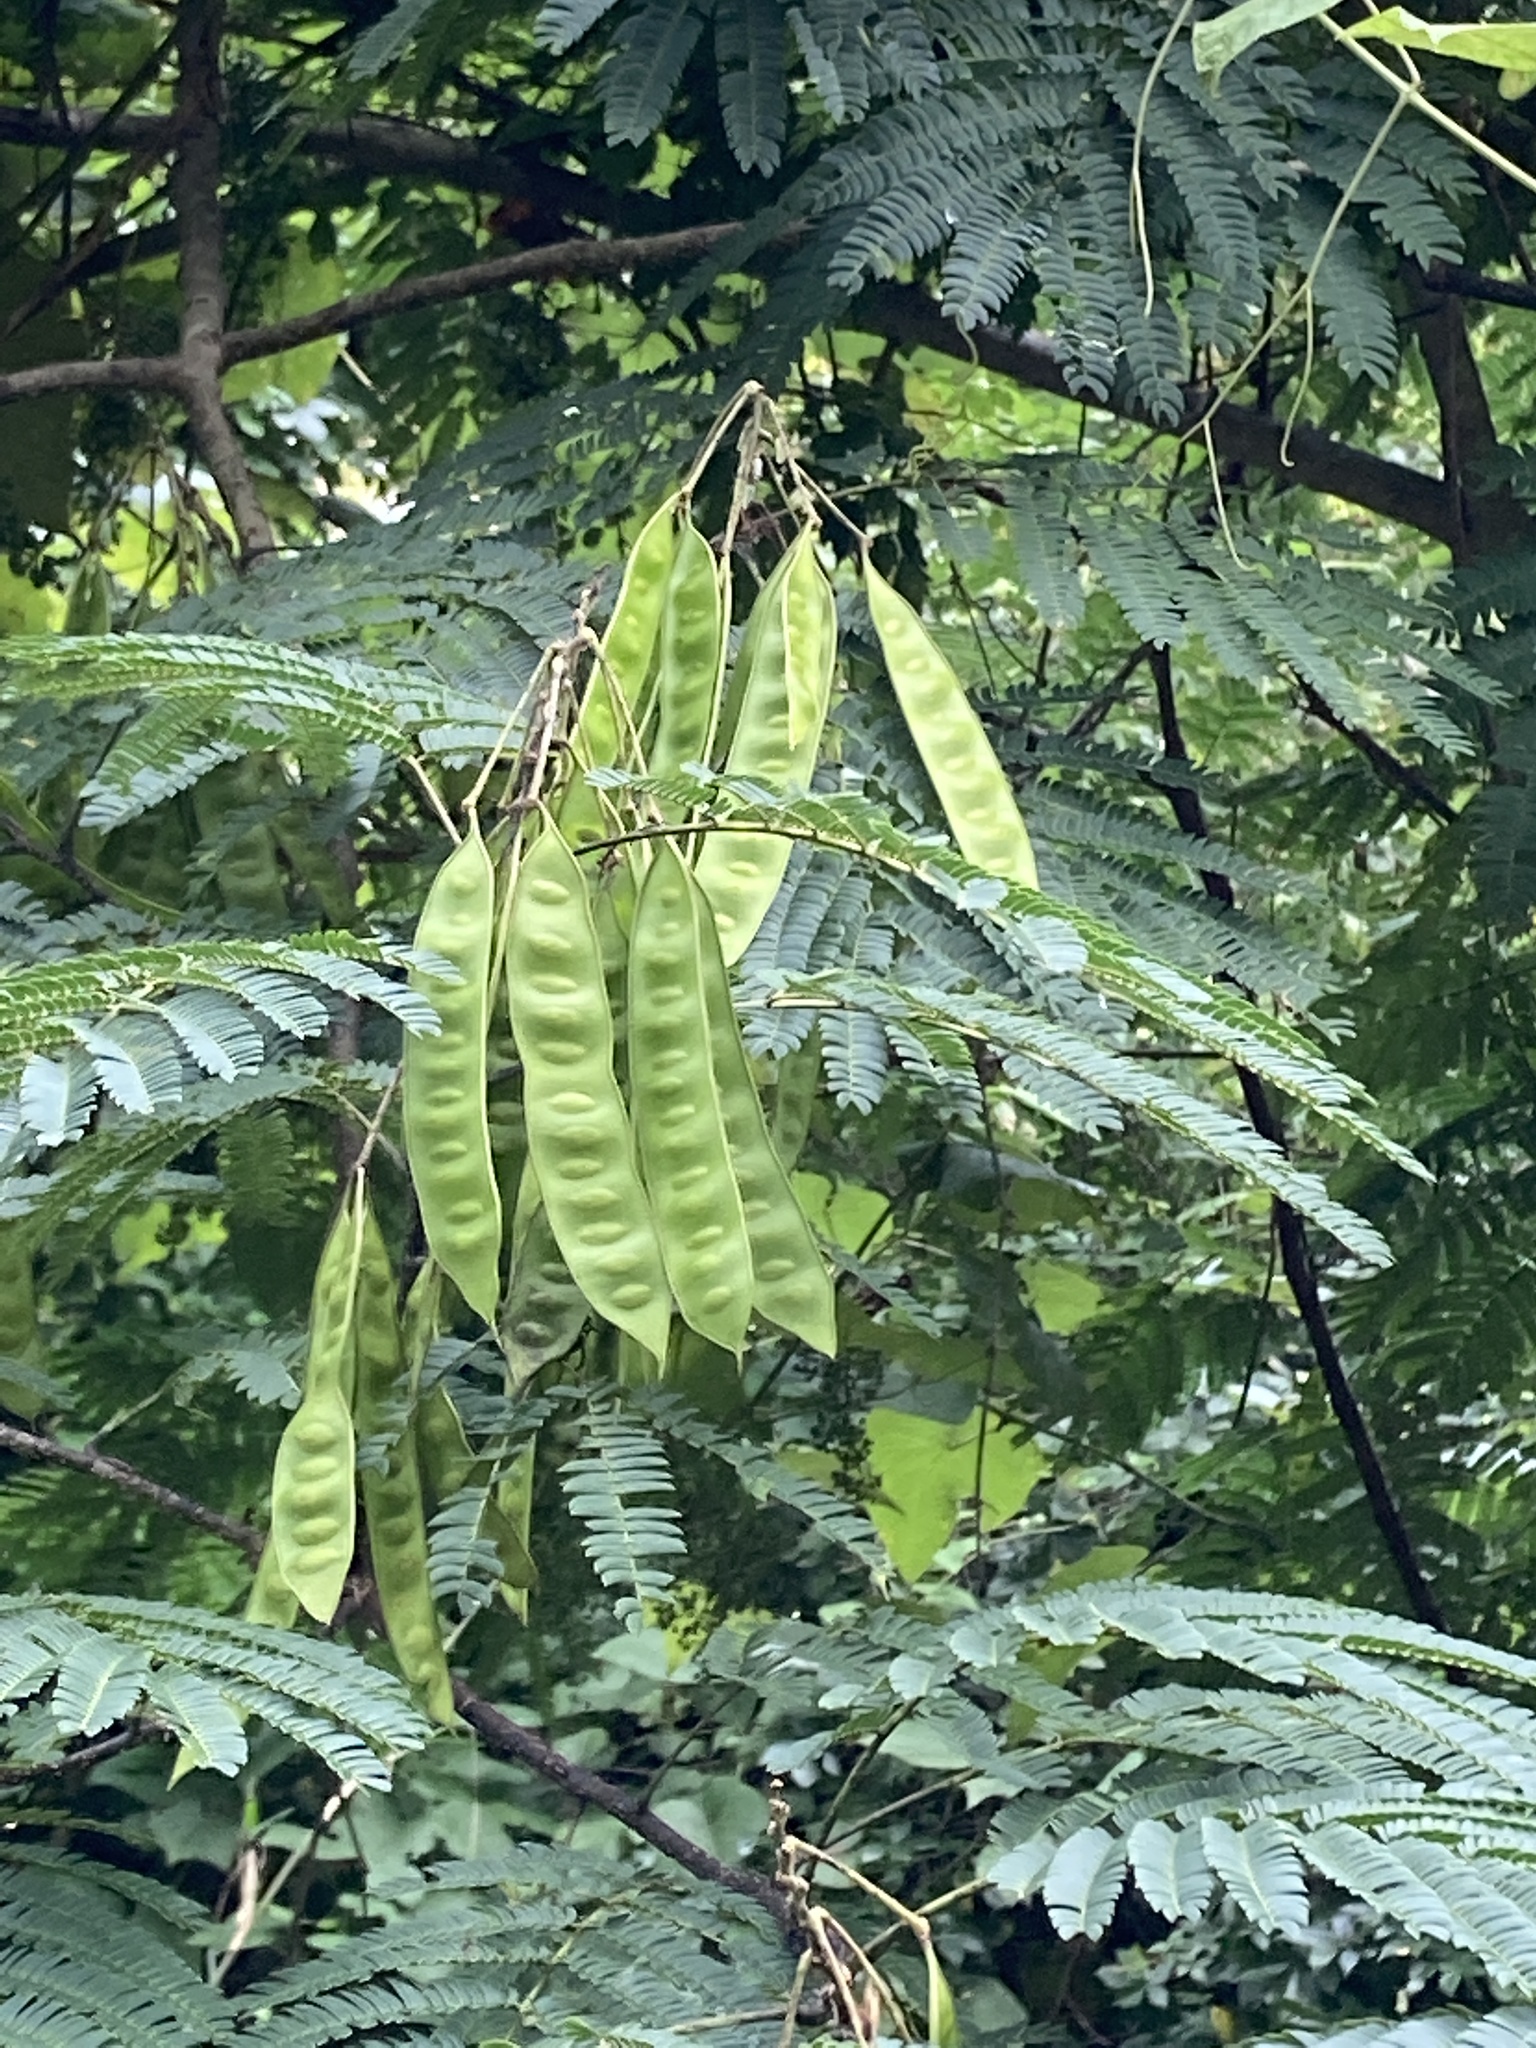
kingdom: Plantae
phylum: Tracheophyta
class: Magnoliopsida
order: Fabales
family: Fabaceae
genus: Albizia
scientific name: Albizia julibrissin
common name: Silktree
